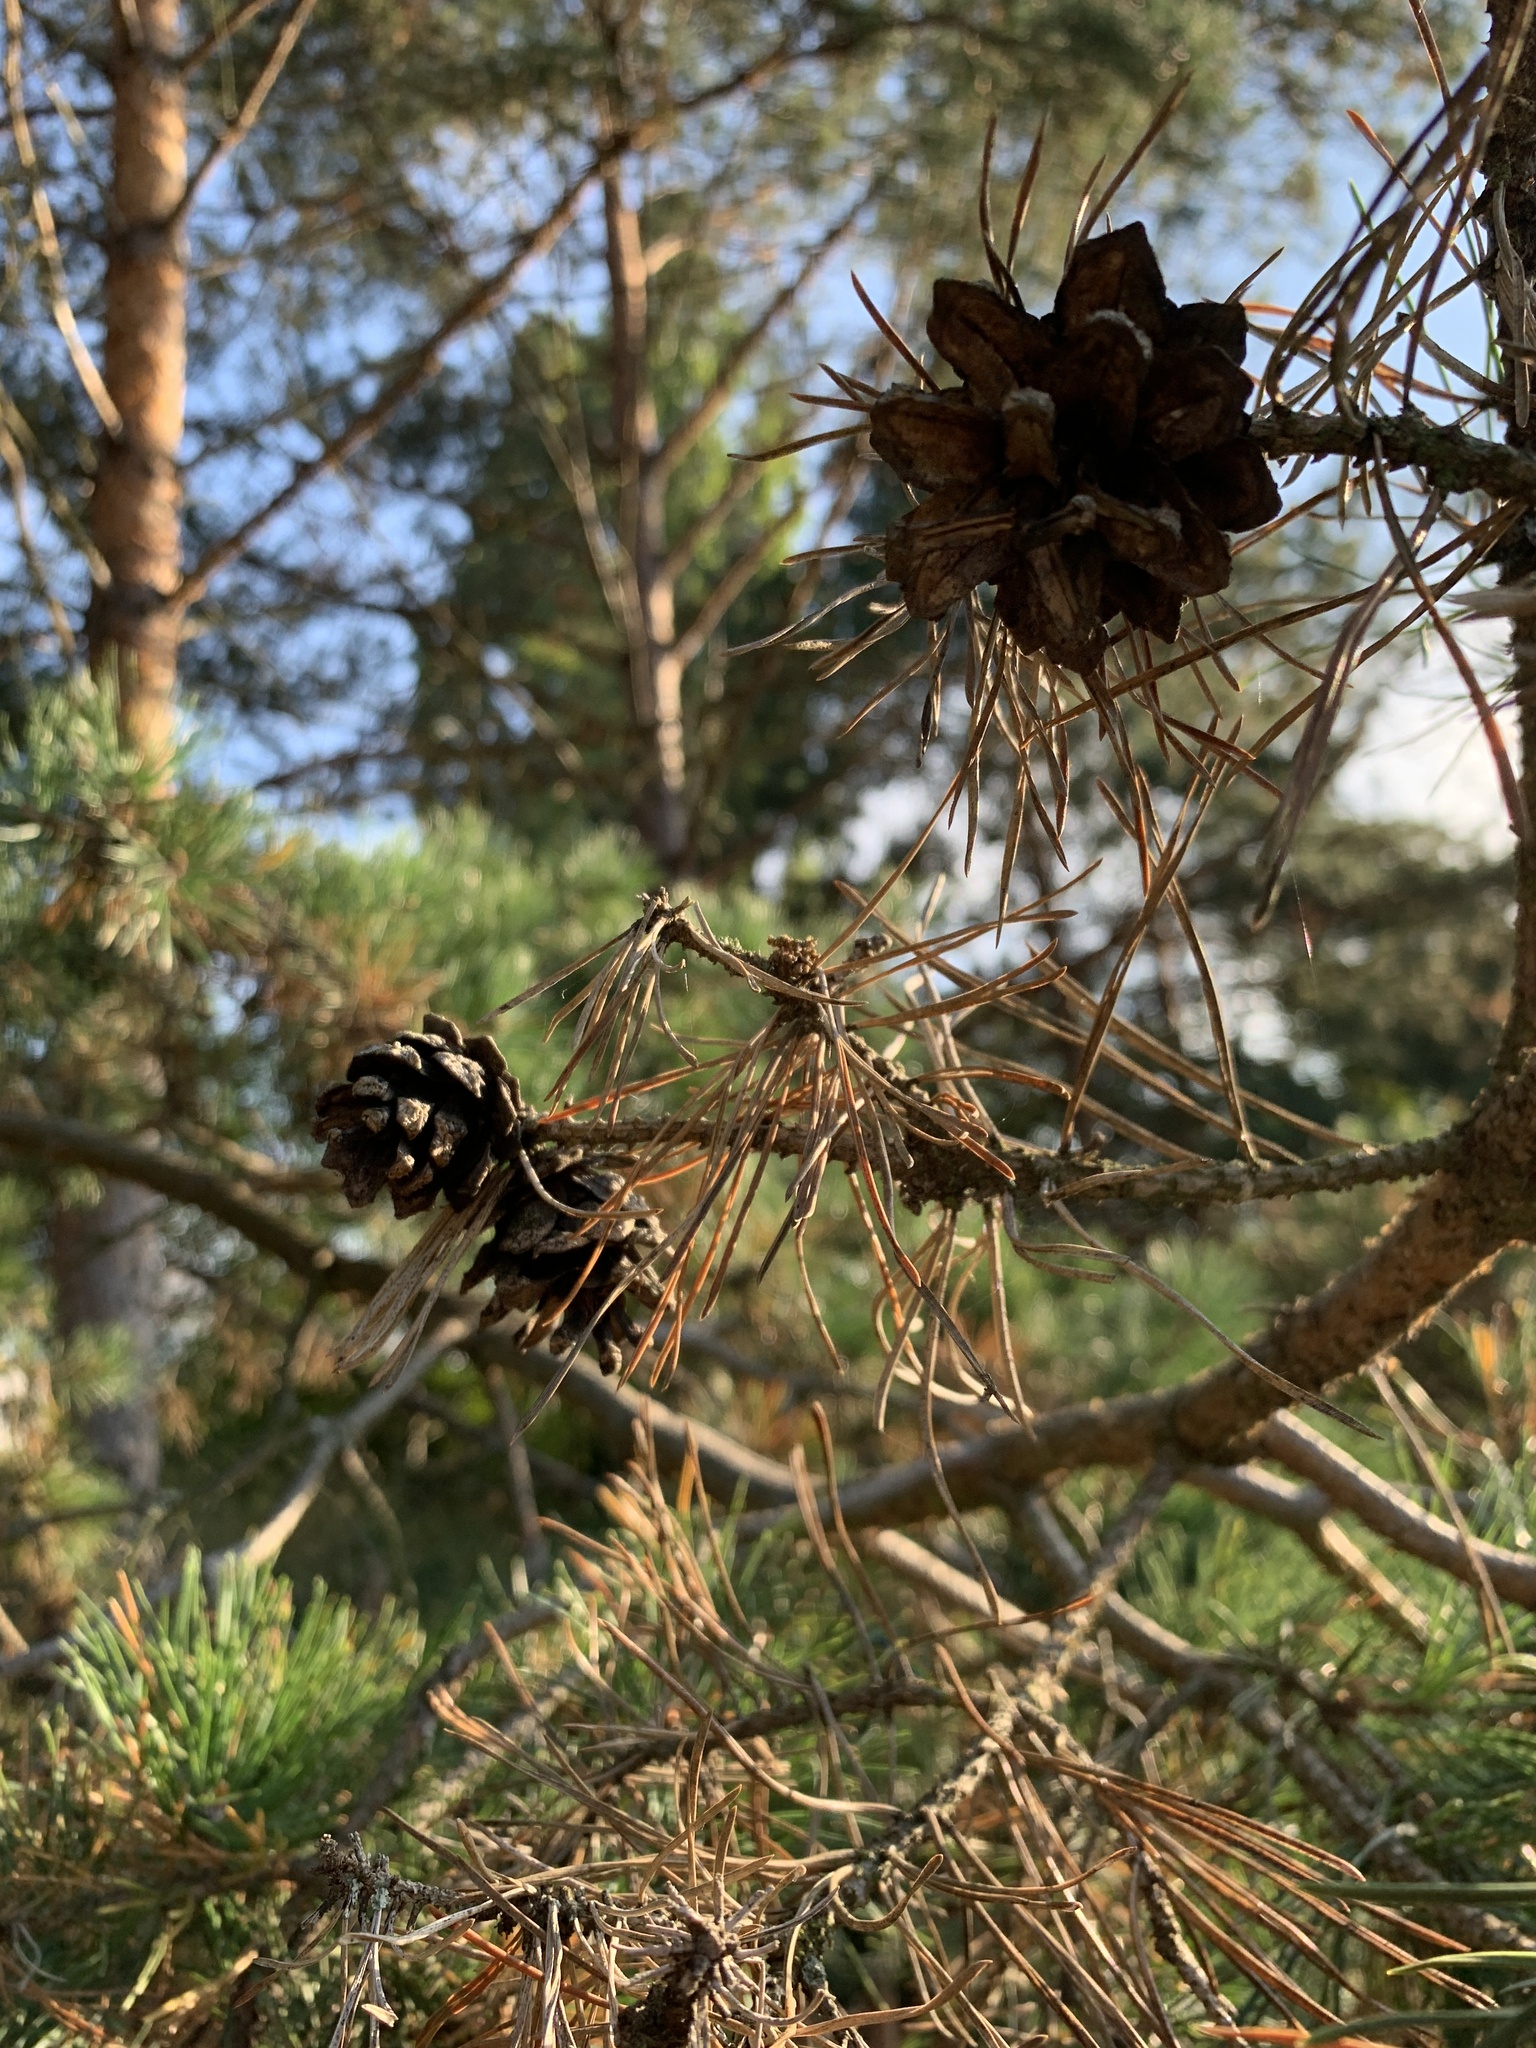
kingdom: Plantae
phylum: Tracheophyta
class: Pinopsida
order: Pinales
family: Pinaceae
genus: Pinus
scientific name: Pinus sylvestris
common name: Scots pine
